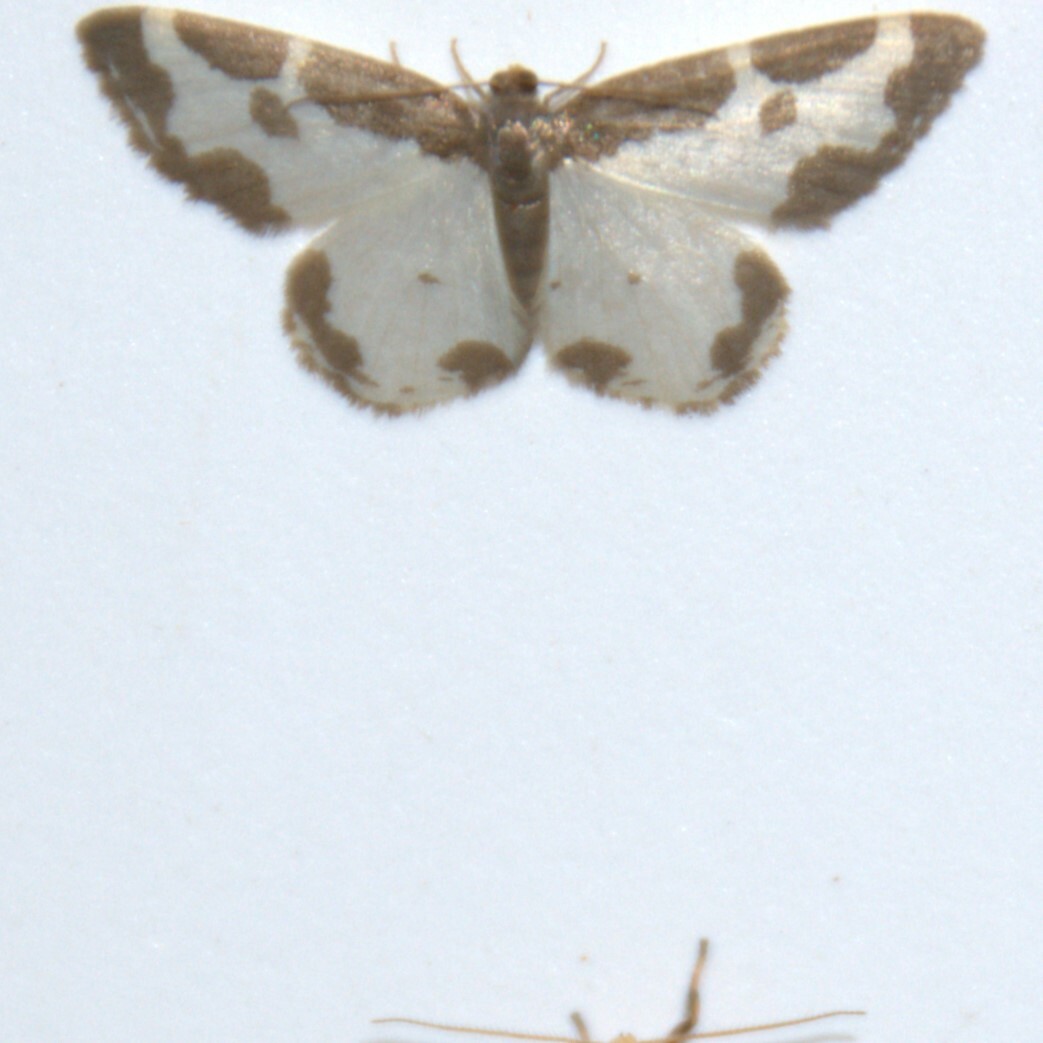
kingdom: Animalia
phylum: Arthropoda
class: Insecta
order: Lepidoptera
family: Geometridae
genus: Lomaspilis
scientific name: Lomaspilis marginata
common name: Clouded border
